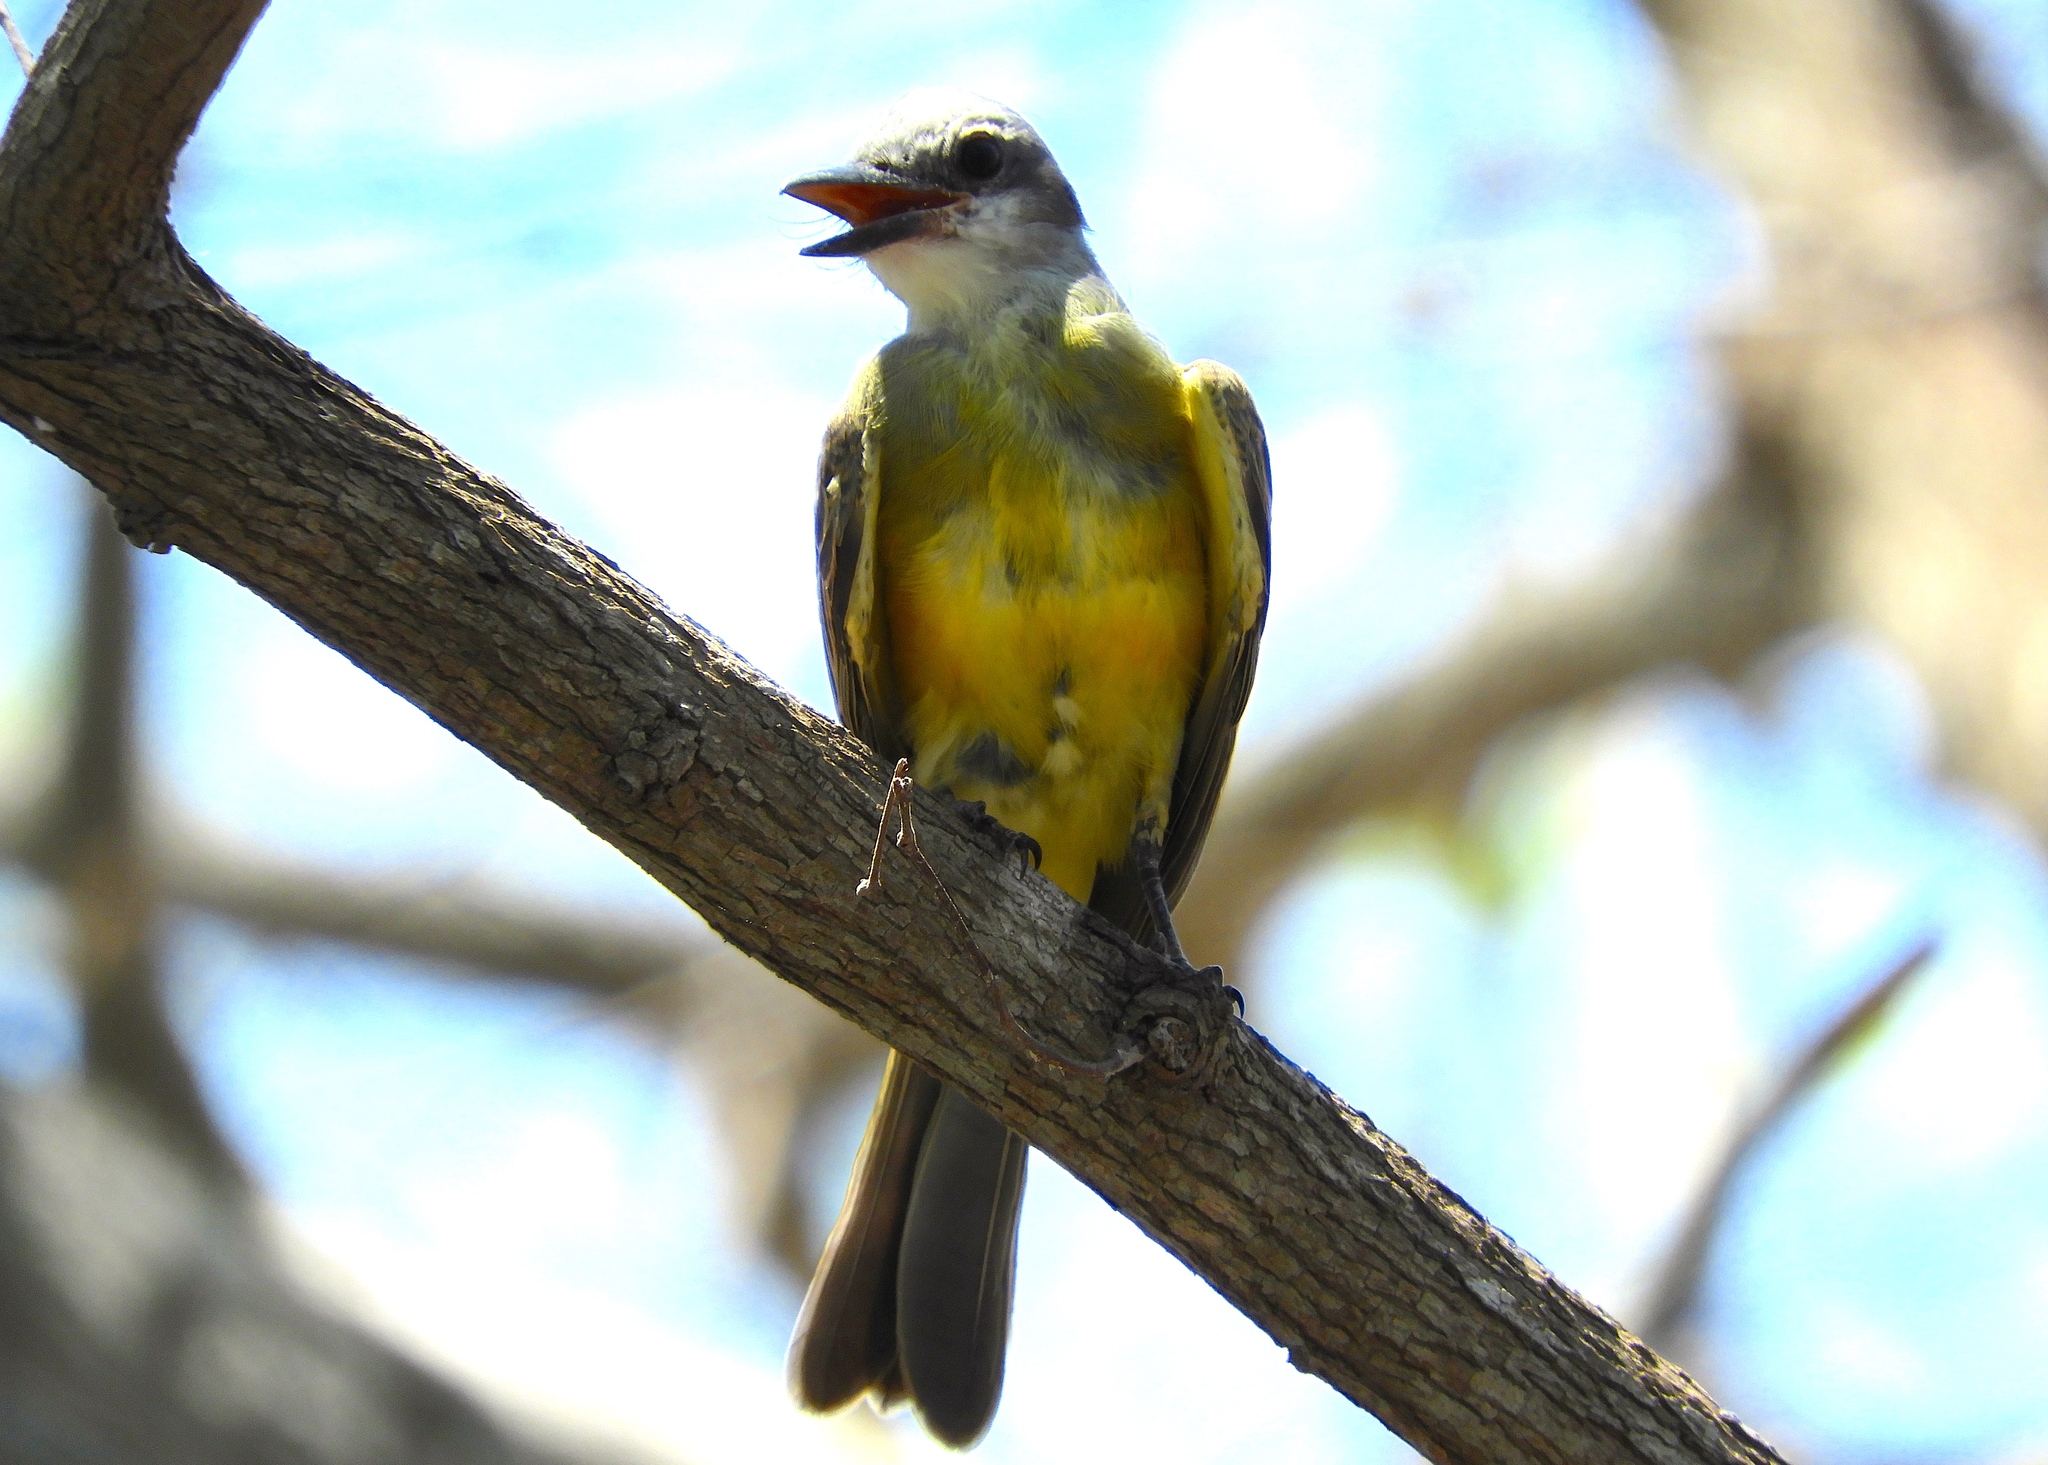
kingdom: Animalia
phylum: Chordata
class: Aves
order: Passeriformes
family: Tyrannidae
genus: Tyrannus
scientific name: Tyrannus melancholicus
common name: Tropical kingbird
